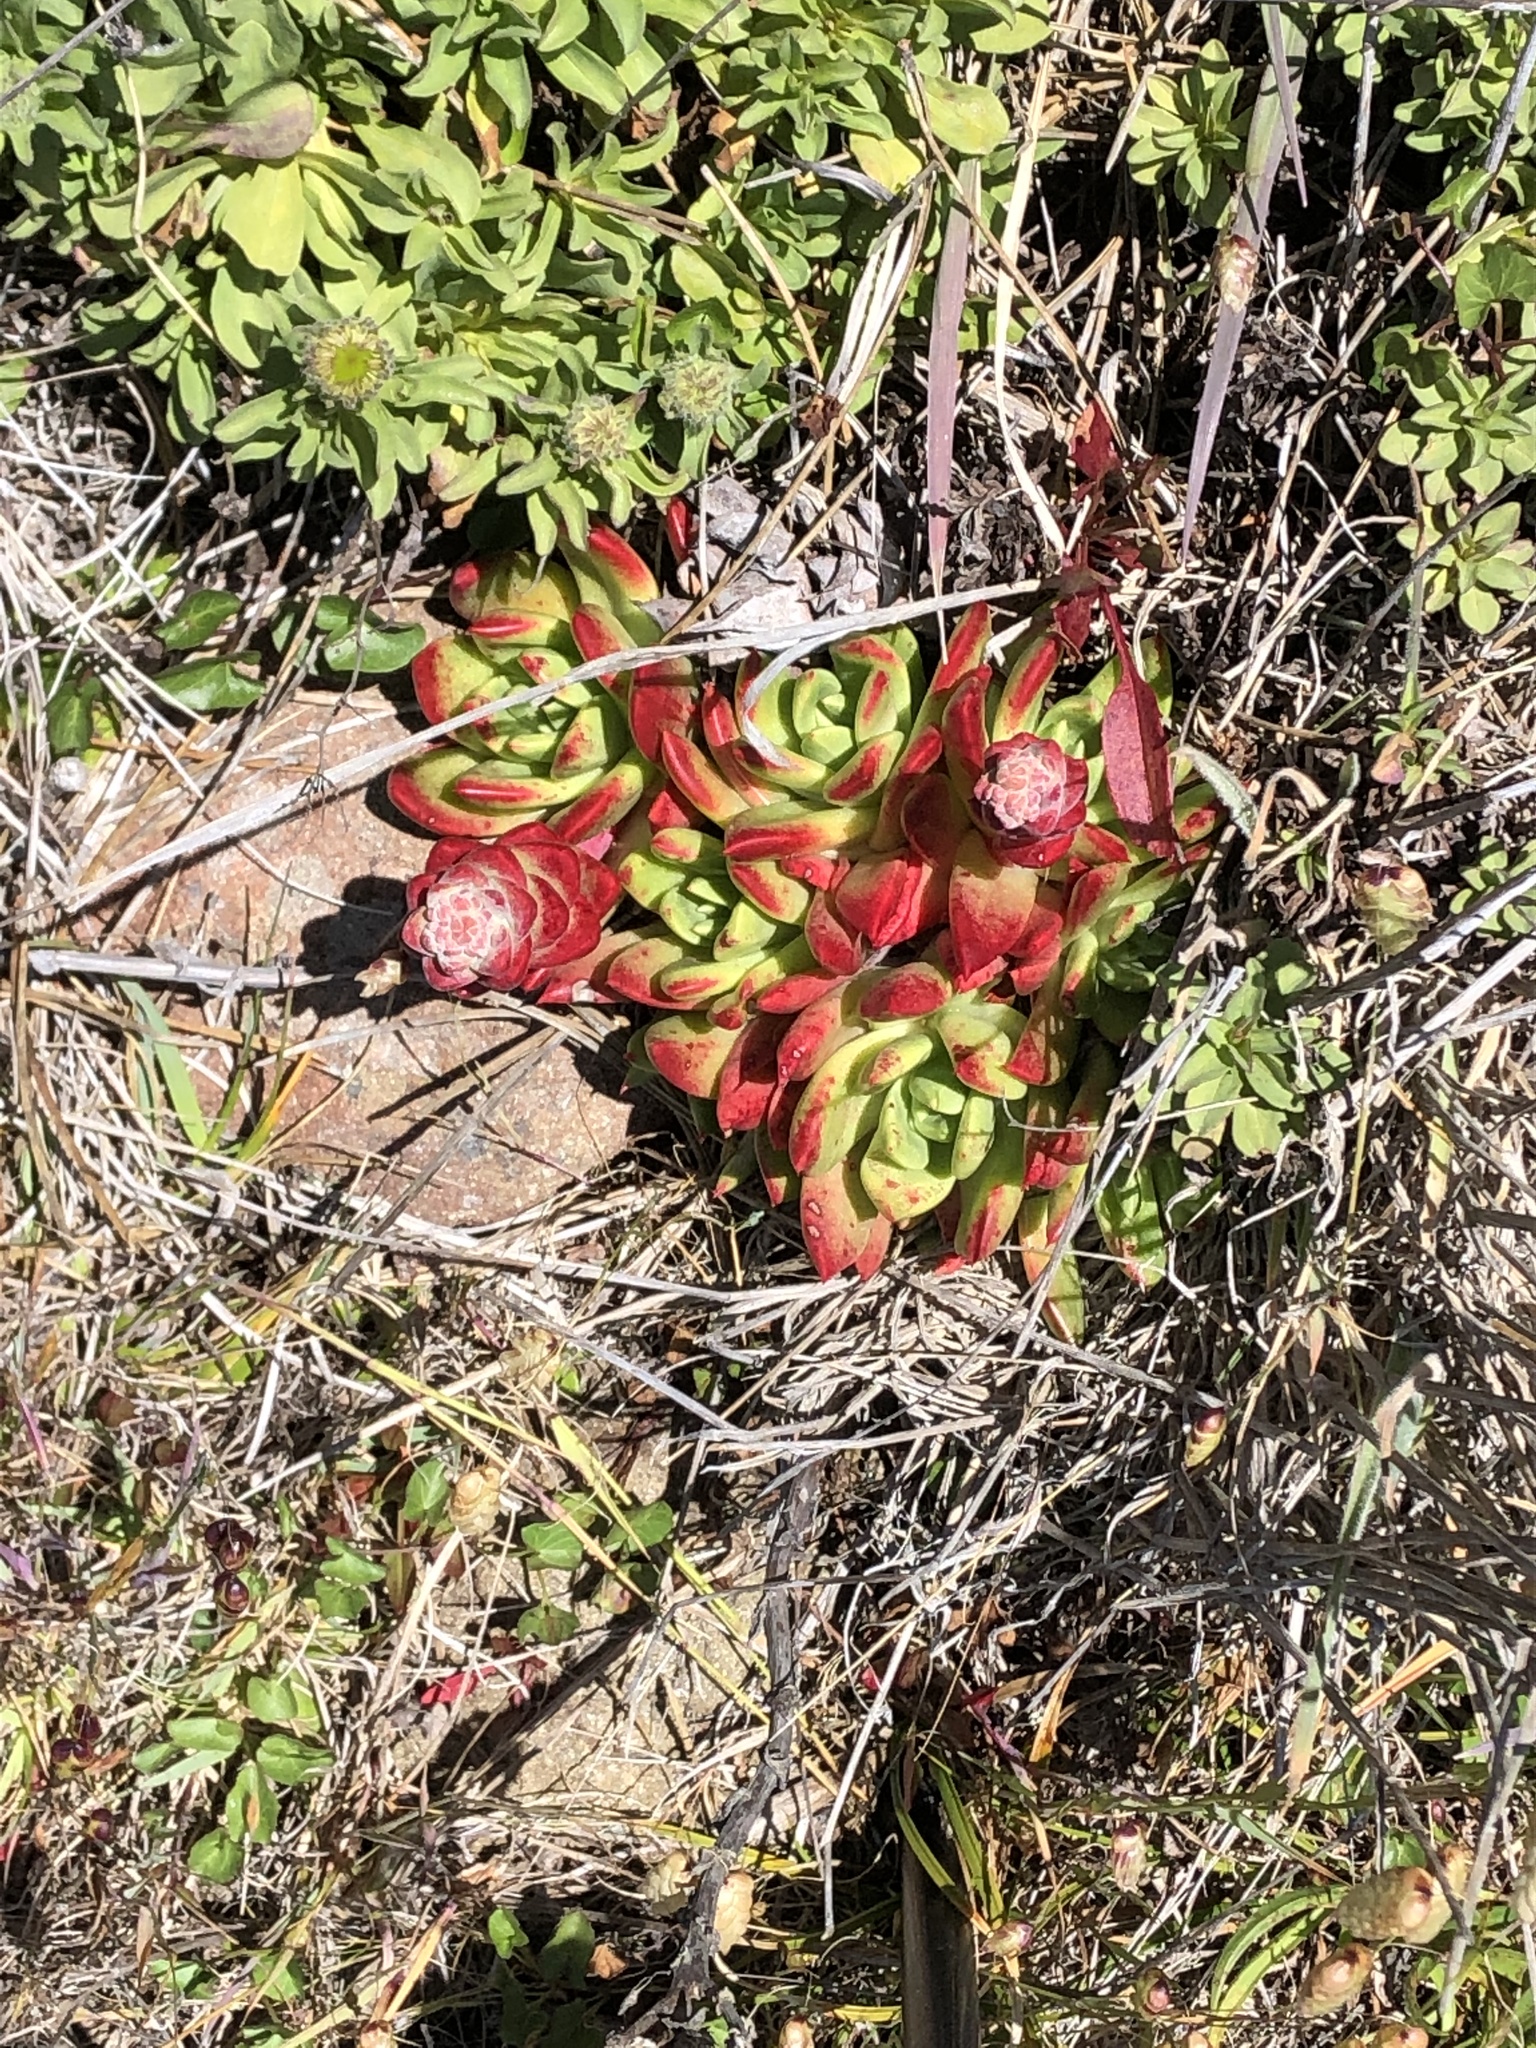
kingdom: Plantae
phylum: Tracheophyta
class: Magnoliopsida
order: Saxifragales
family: Crassulaceae
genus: Dudleya
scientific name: Dudleya farinosa
